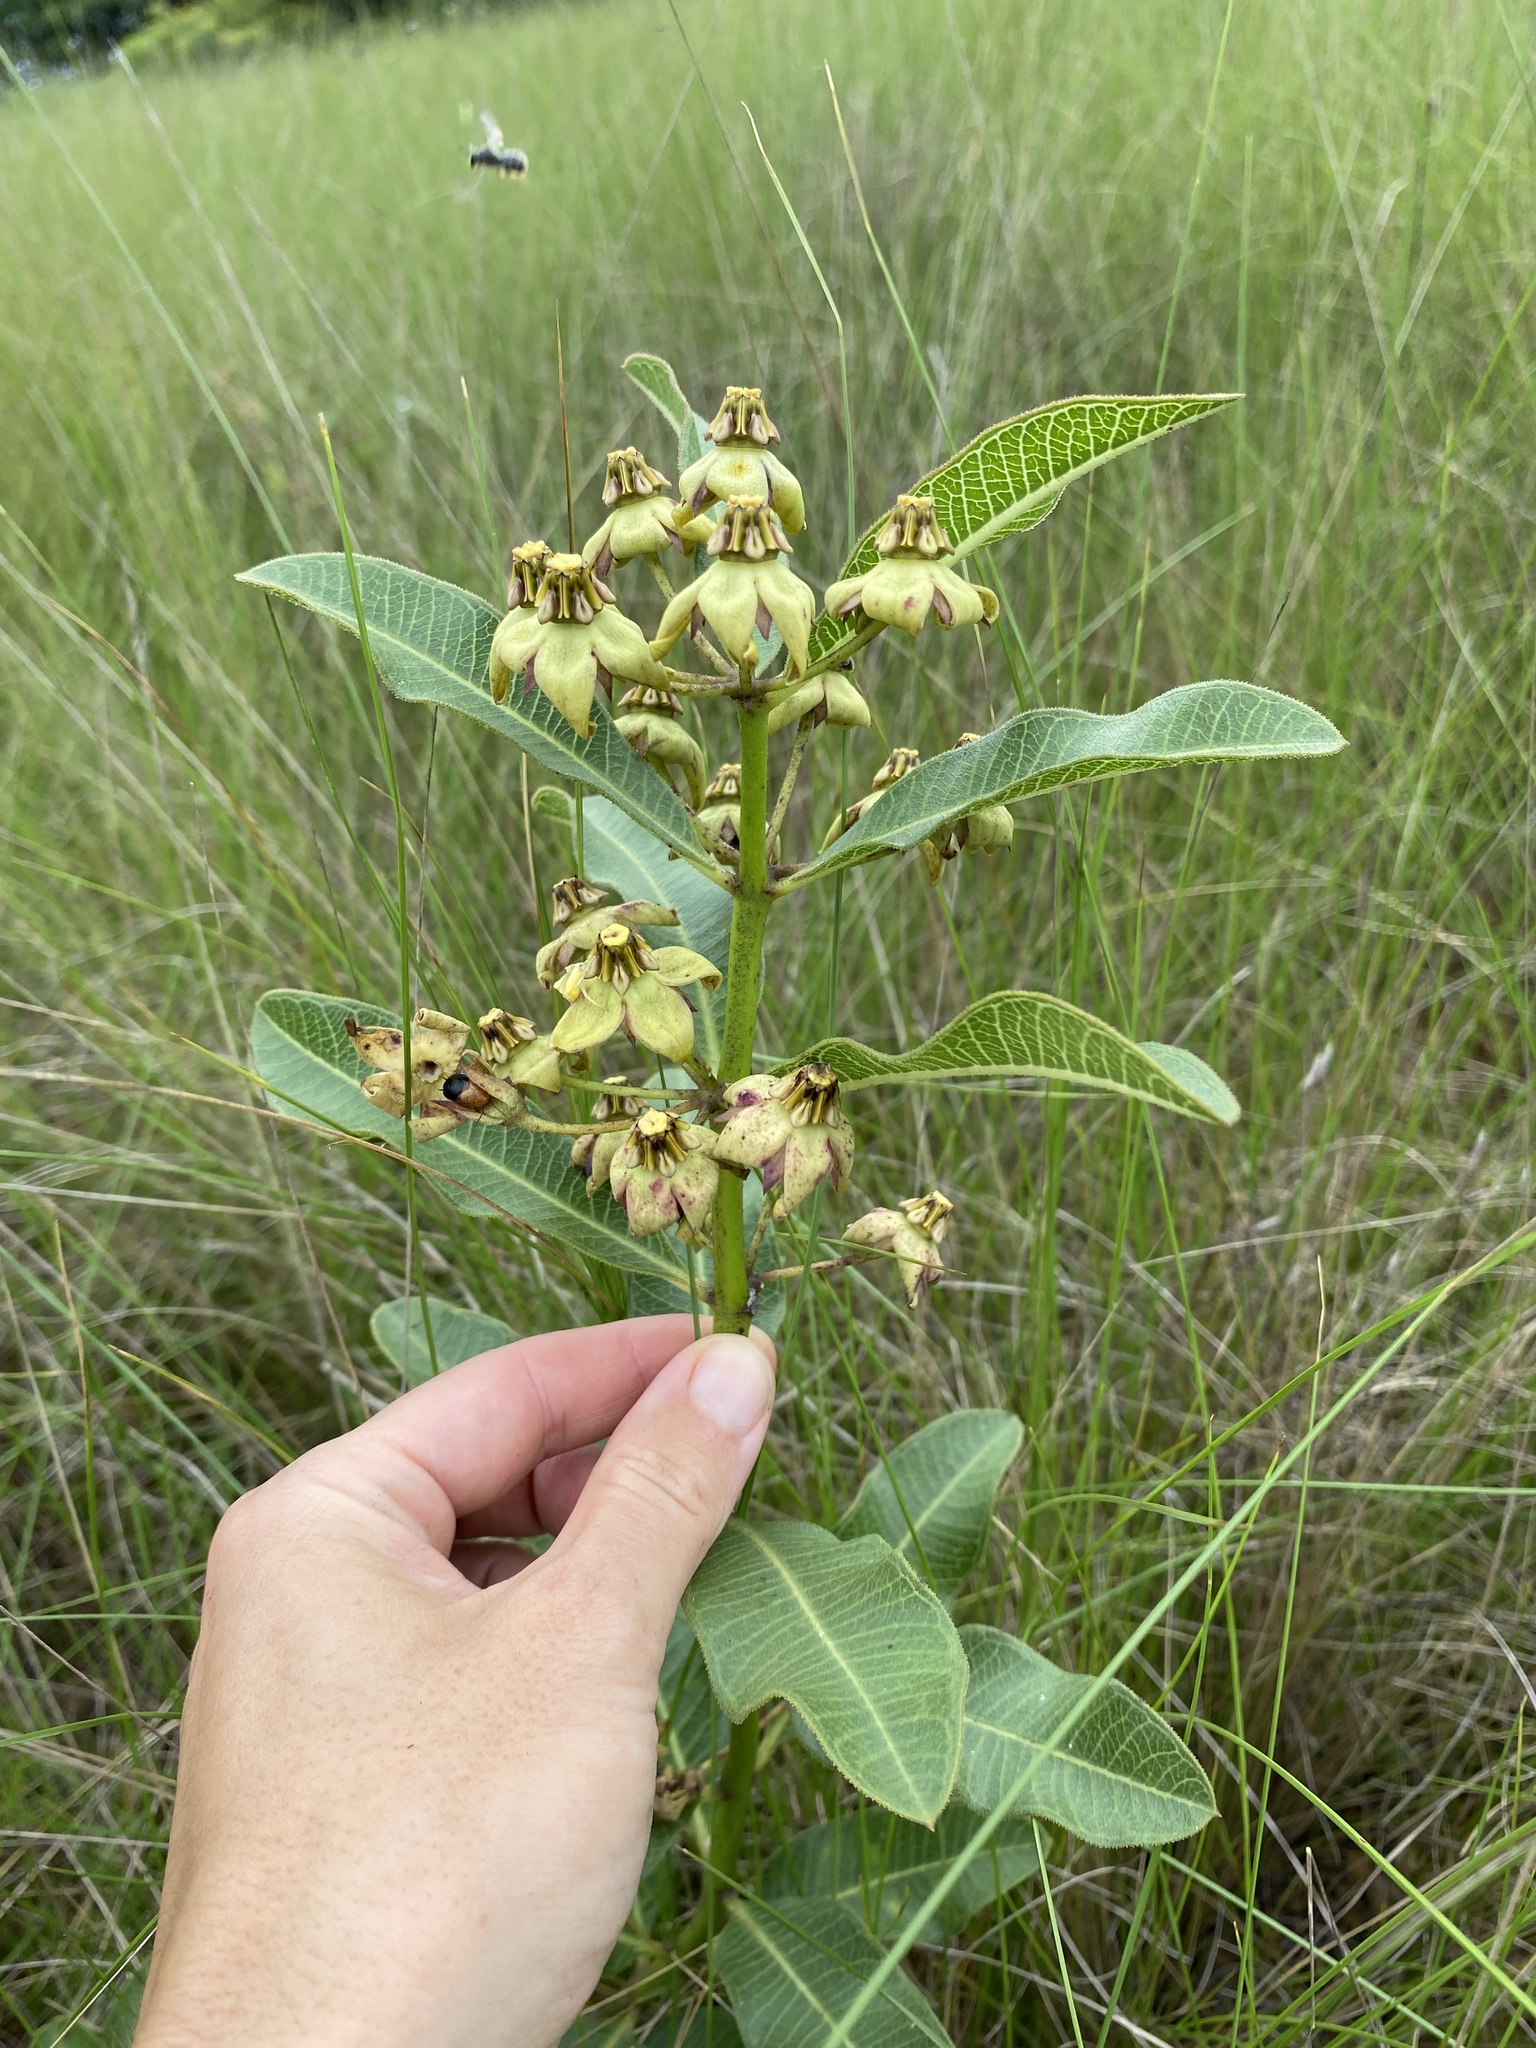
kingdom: Plantae
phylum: Tracheophyta
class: Magnoliopsida
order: Gentianales
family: Apocynaceae
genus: Pachycarpus
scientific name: Pachycarpus asperifolius
